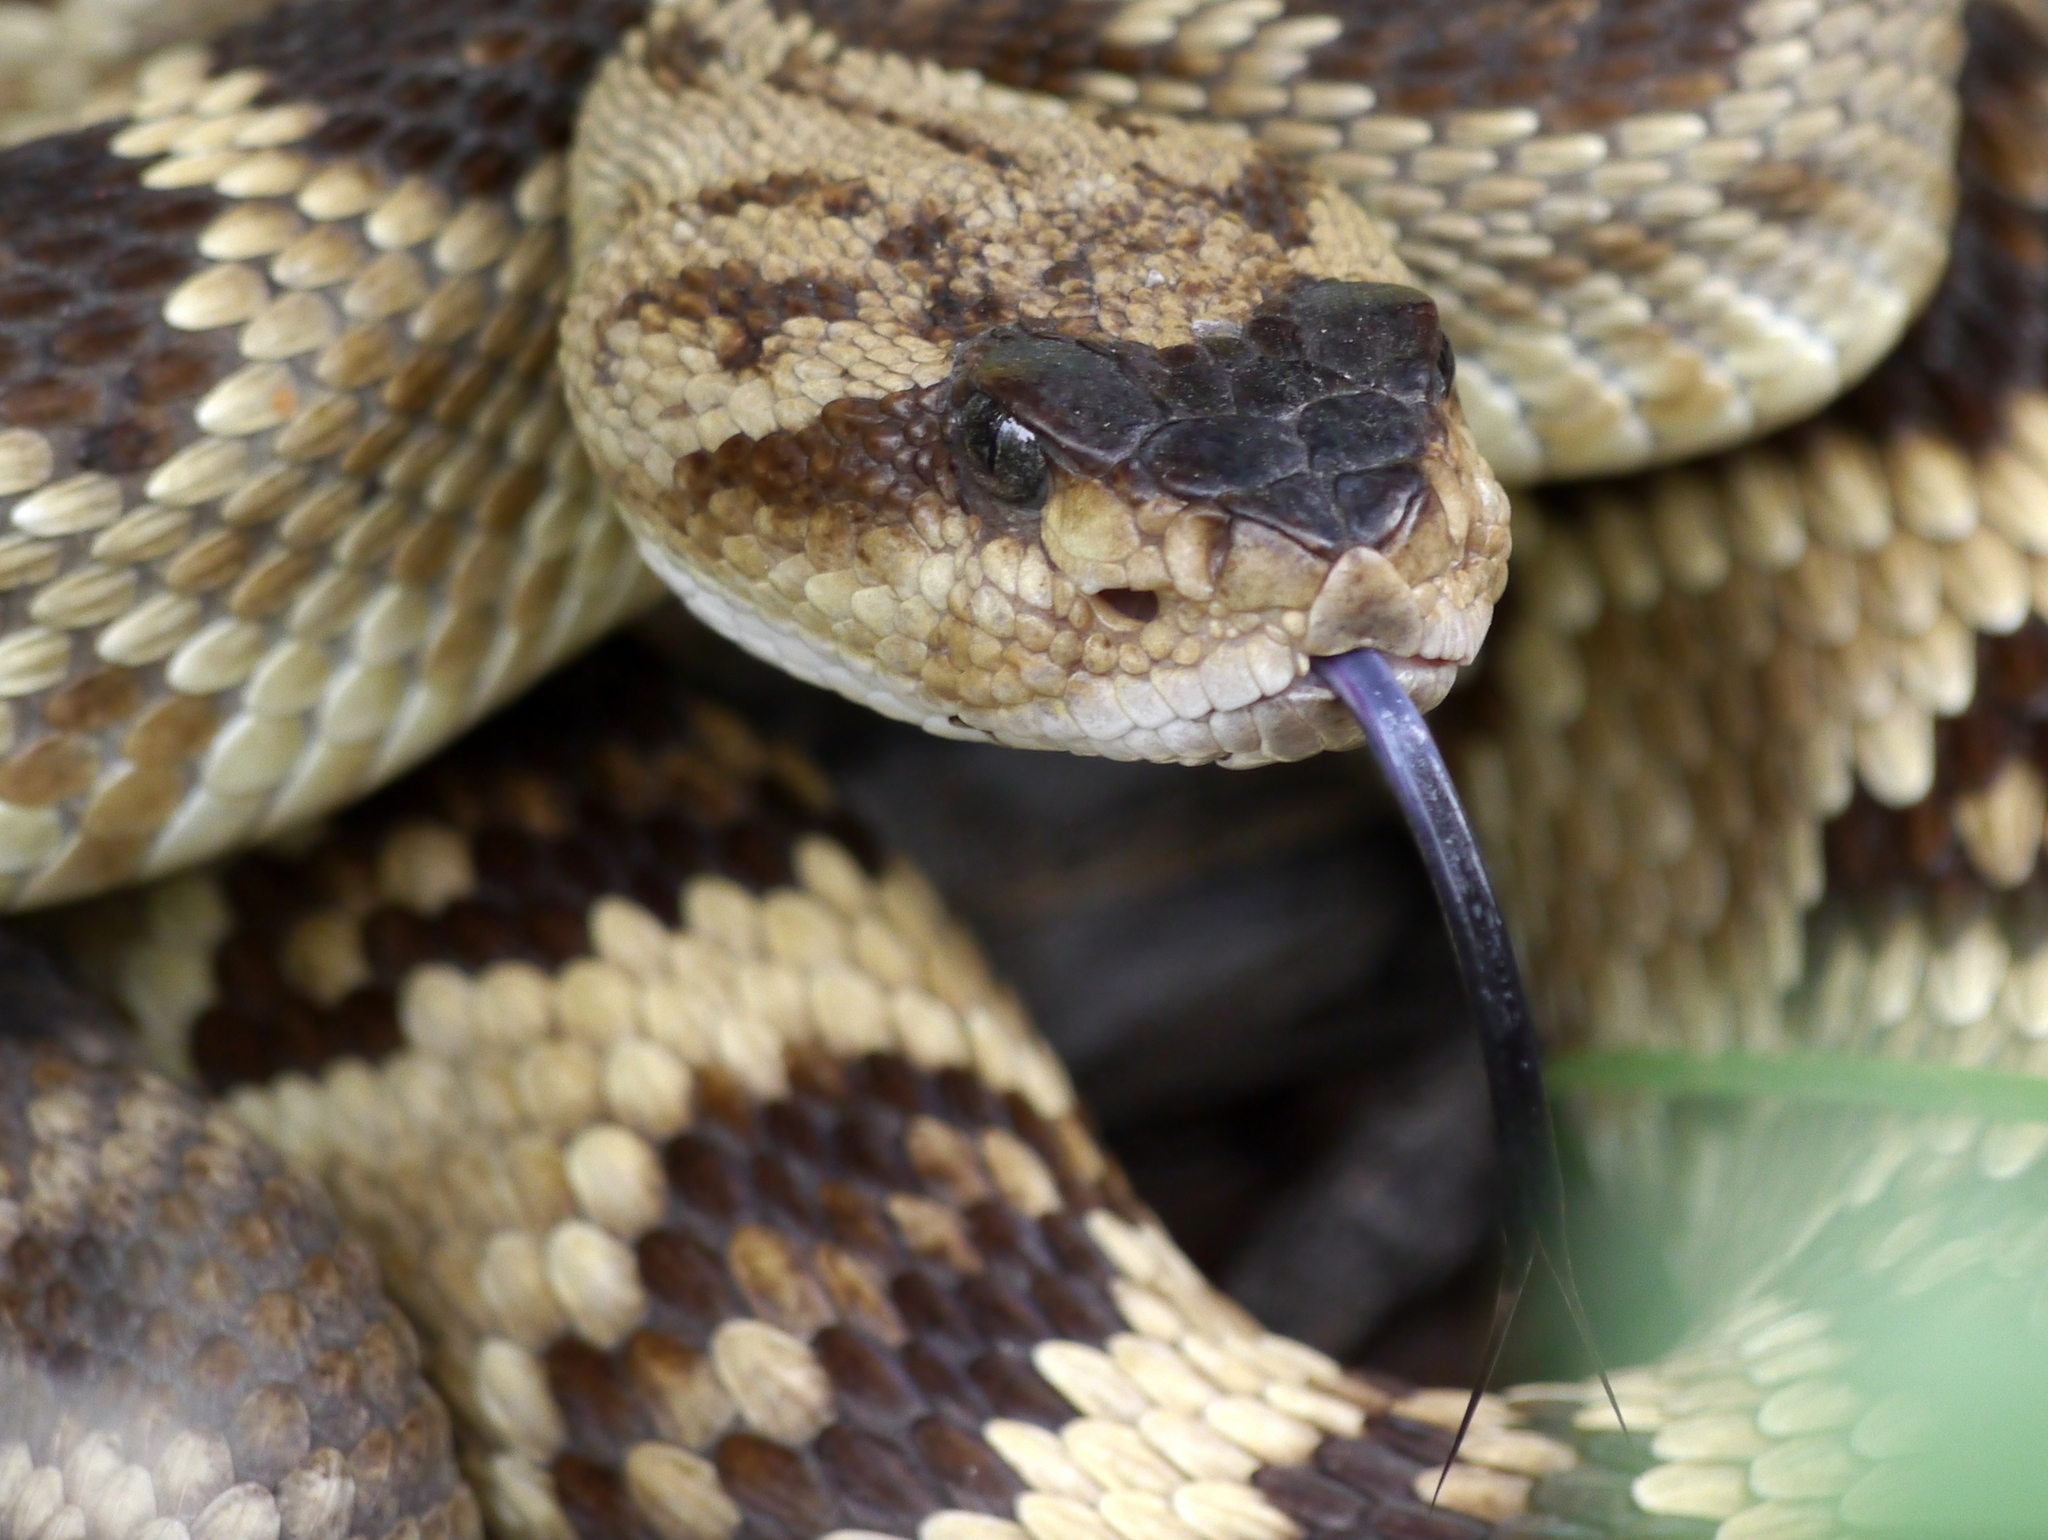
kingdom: Animalia
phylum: Chordata
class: Squamata
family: Viperidae
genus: Crotalus
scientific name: Crotalus molossus
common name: Black tailed rattlesnake
